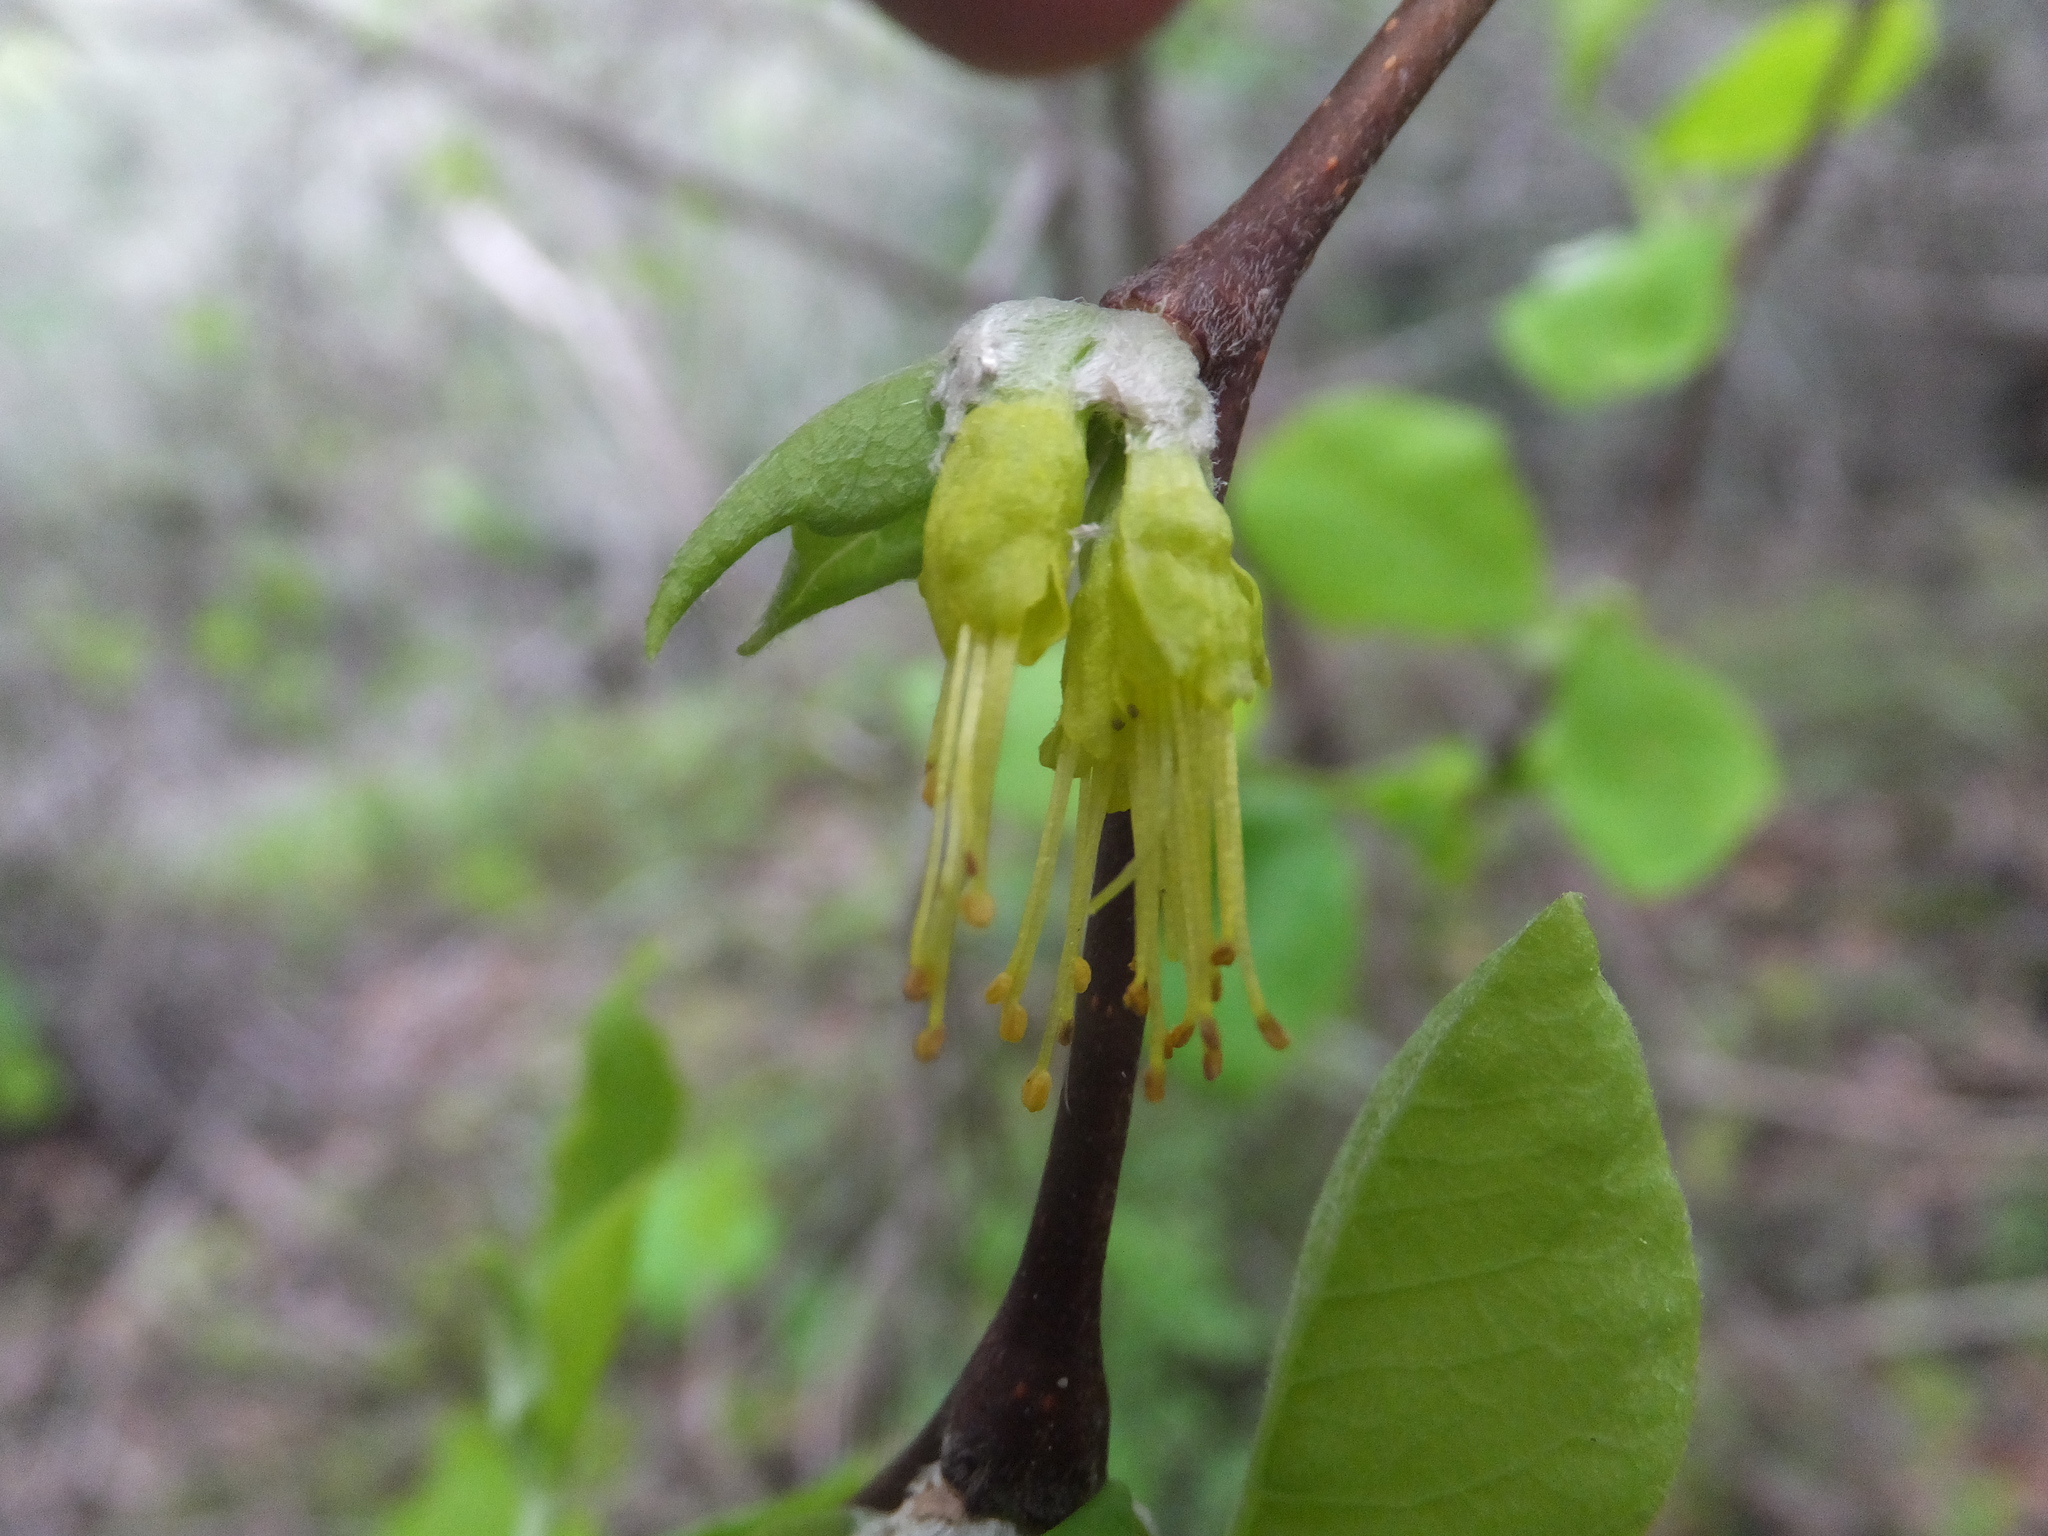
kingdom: Plantae
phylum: Tracheophyta
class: Magnoliopsida
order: Malvales
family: Thymelaeaceae
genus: Dirca
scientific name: Dirca occidentalis
